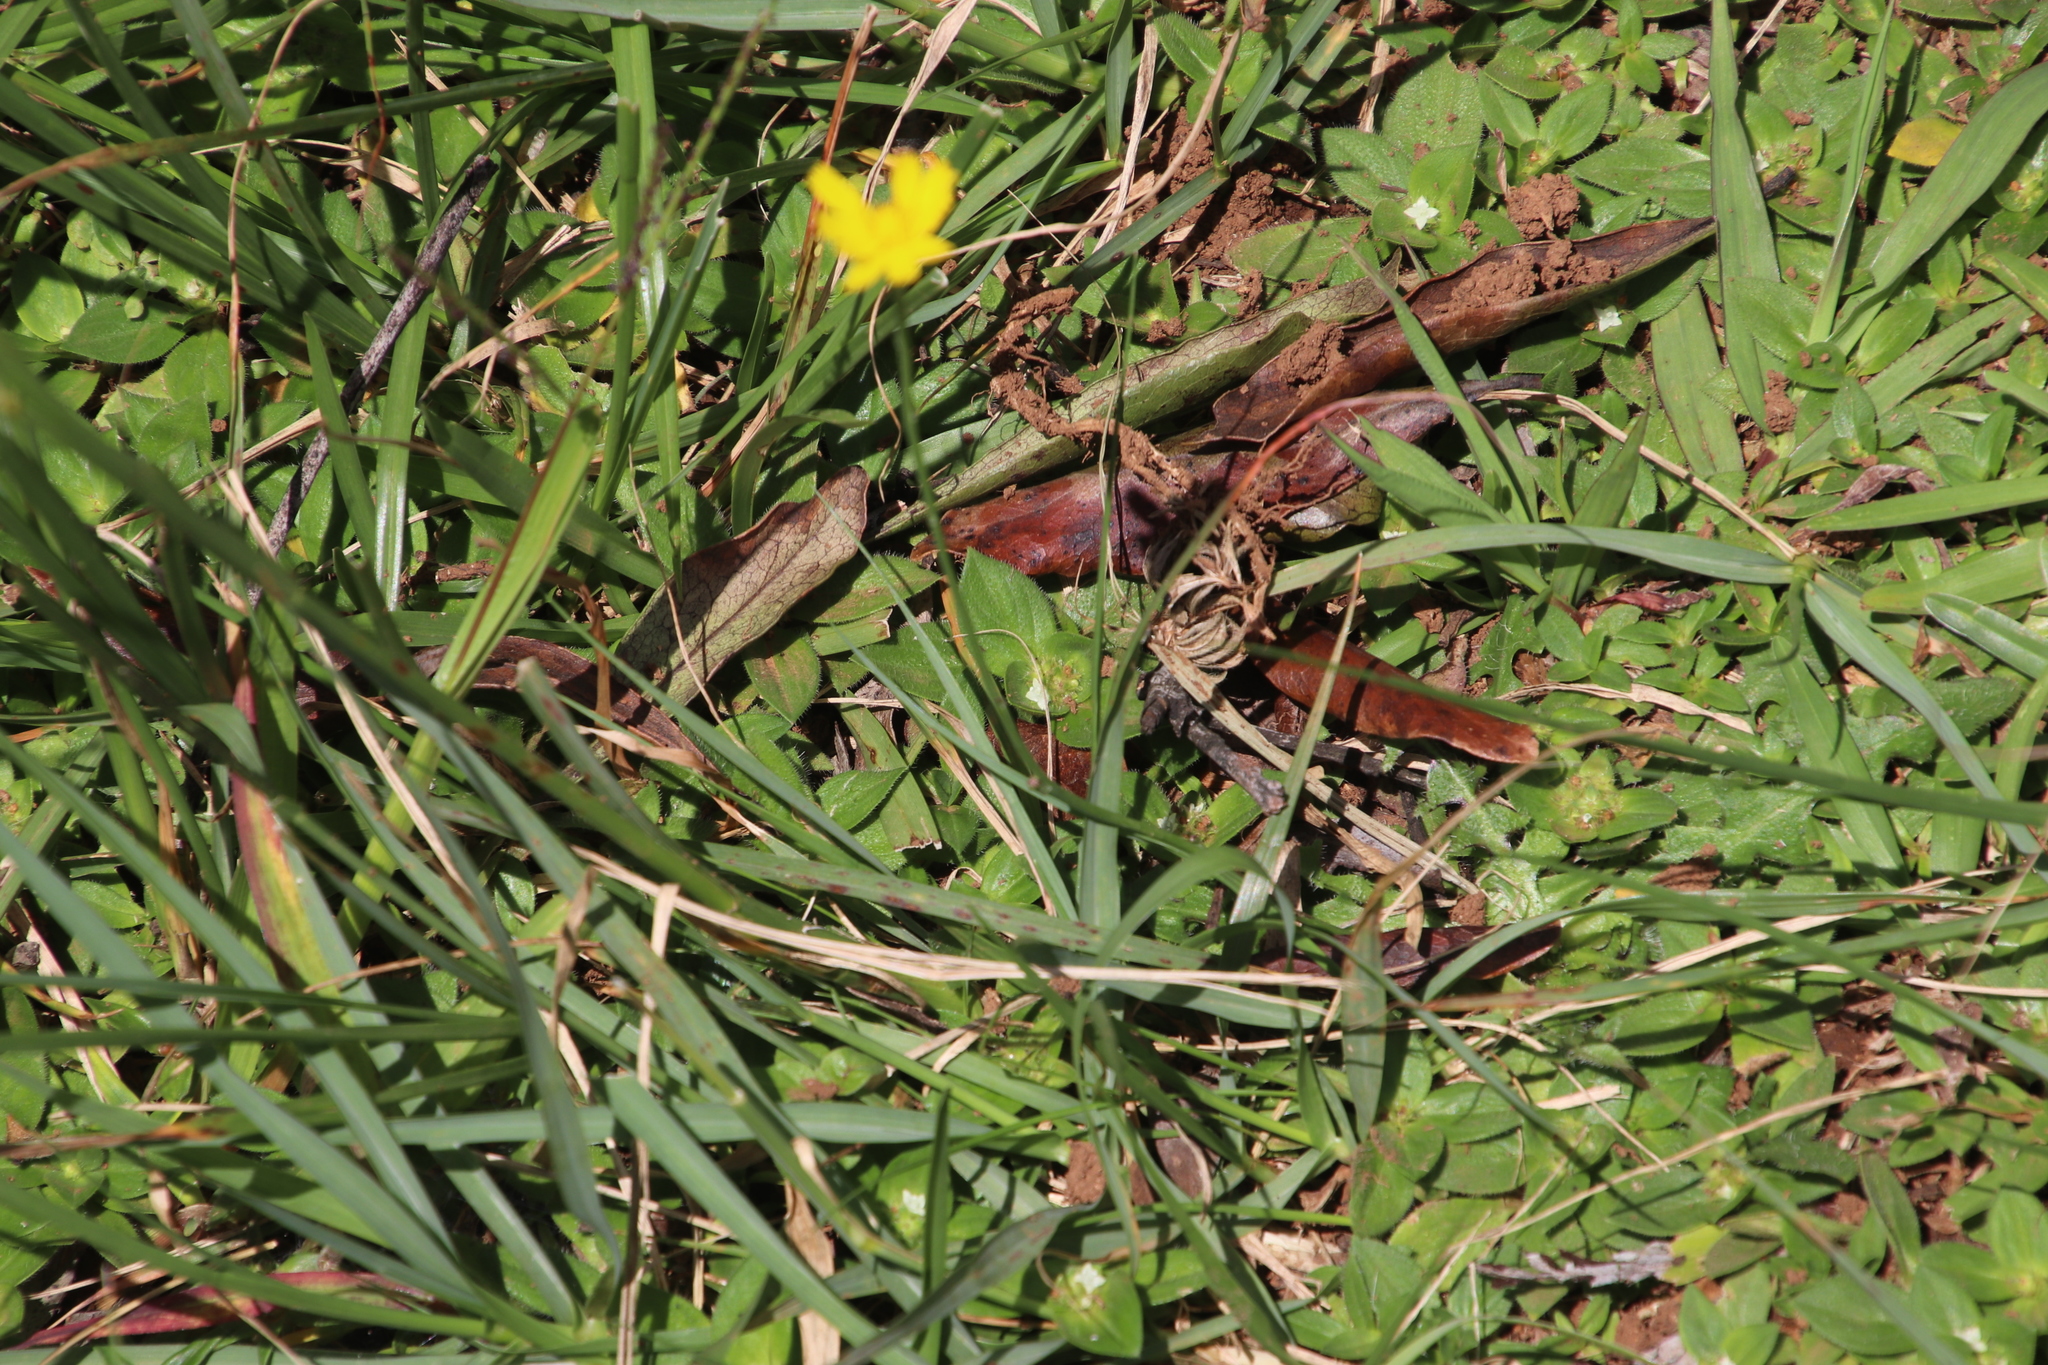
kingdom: Plantae
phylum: Tracheophyta
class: Magnoliopsida
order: Asterales
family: Asteraceae
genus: Hypochaeris
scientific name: Hypochaeris radicata
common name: Flatweed
